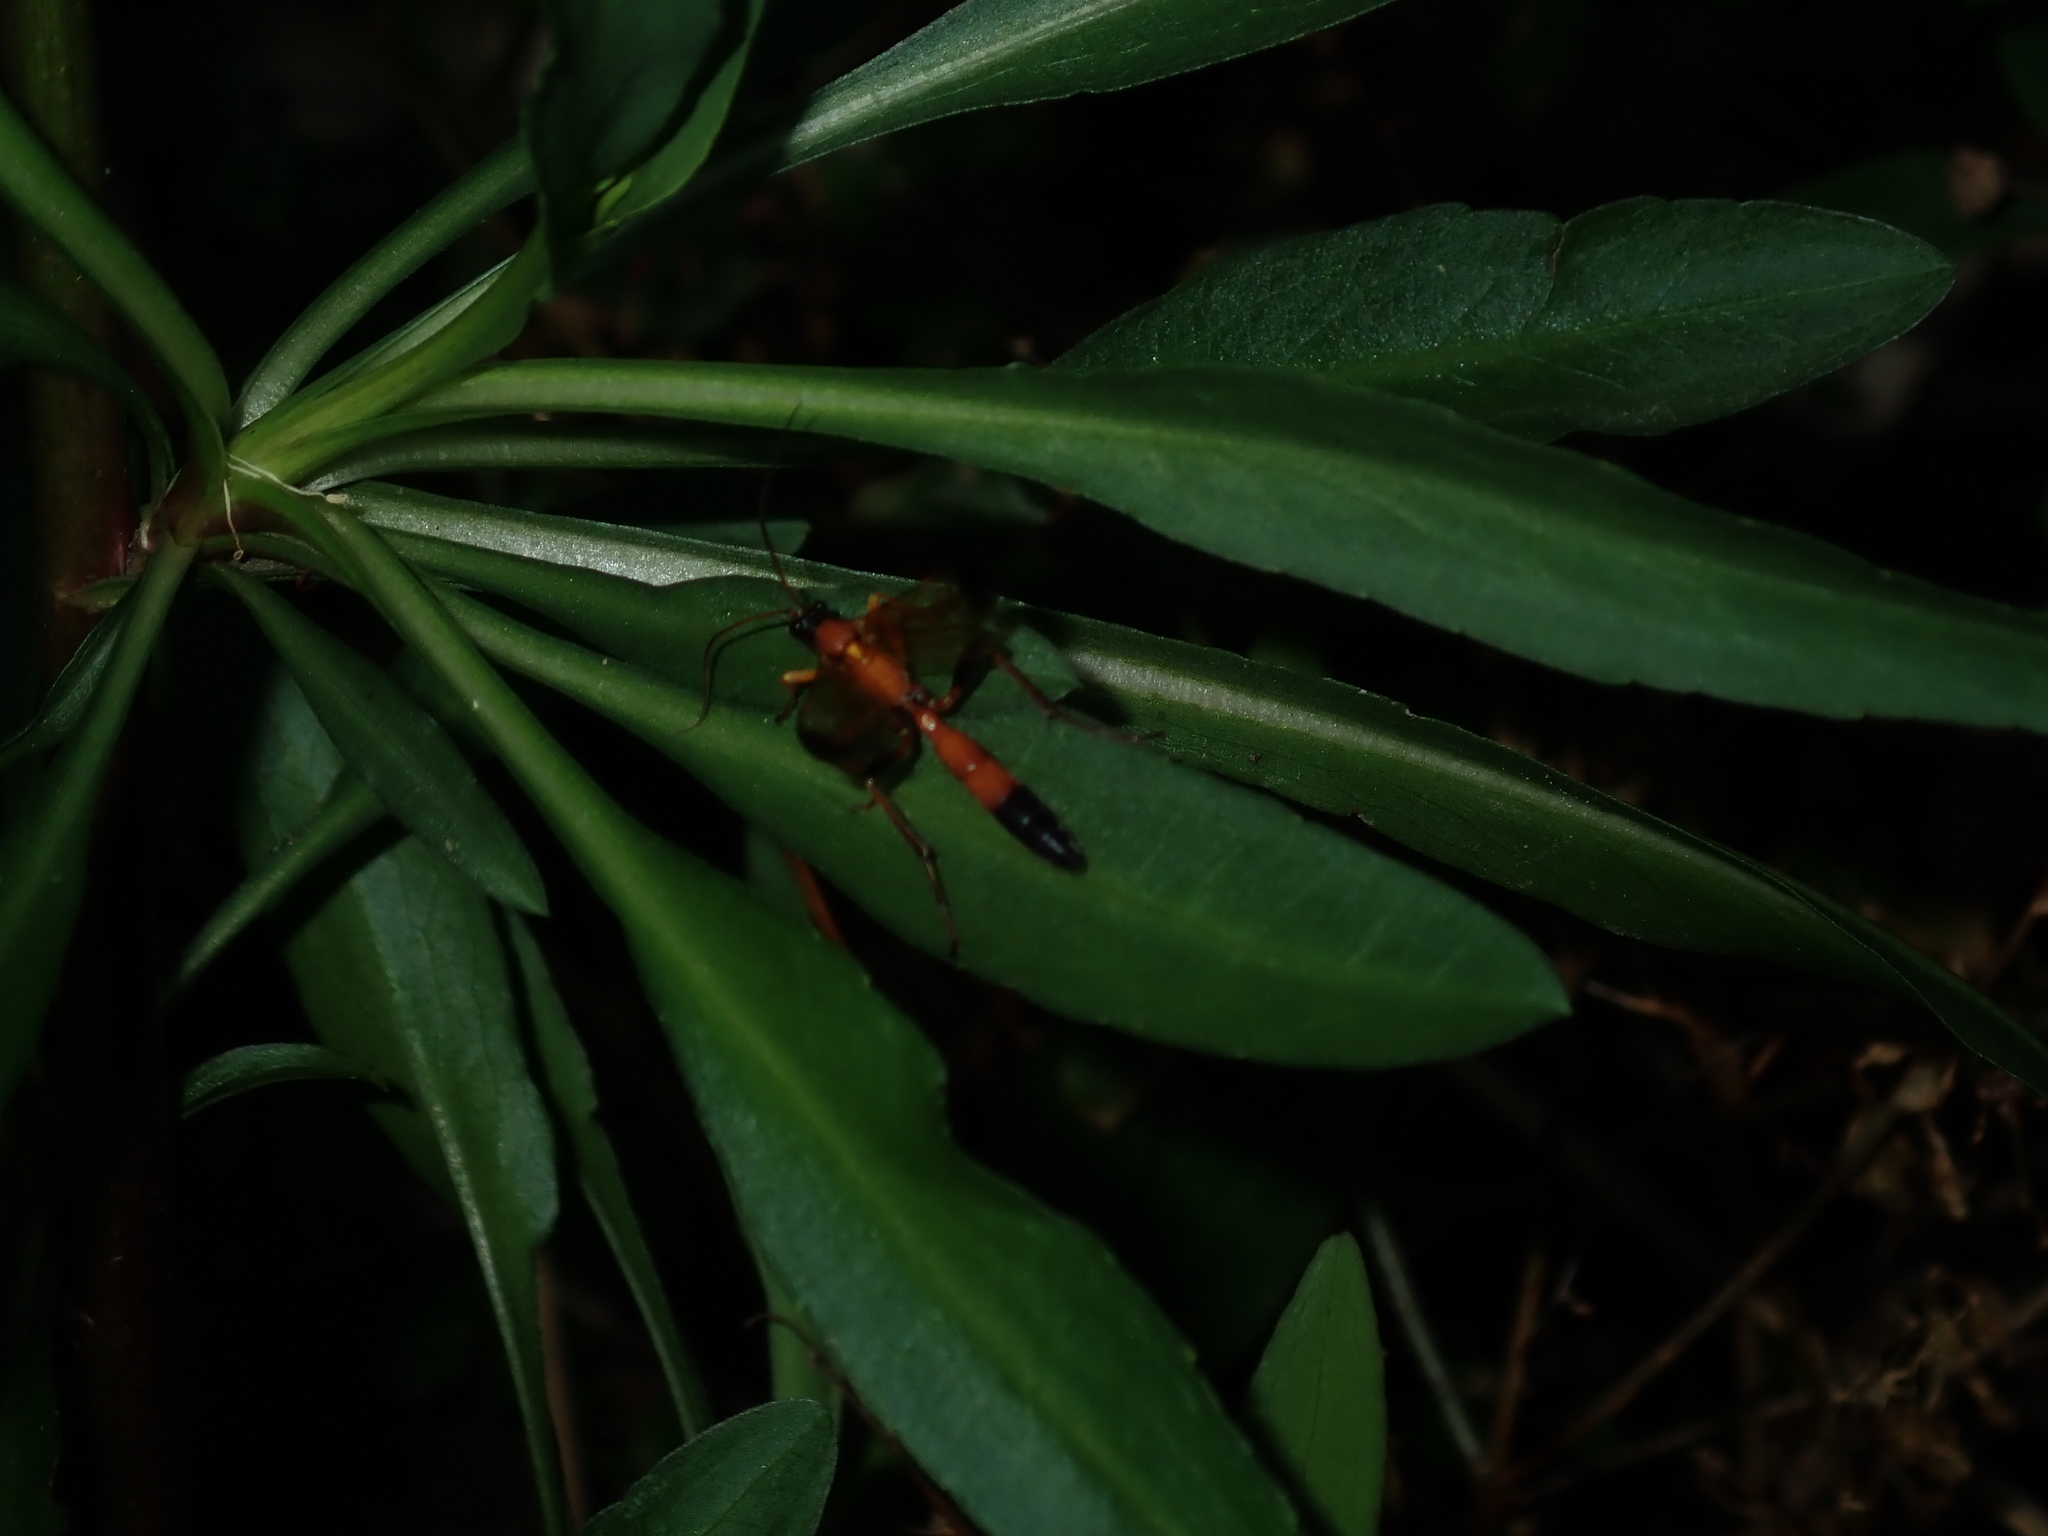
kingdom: Animalia
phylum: Arthropoda
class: Insecta
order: Hymenoptera
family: Ichneumonidae
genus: Ctenochares
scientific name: Ctenochares bicolorus
